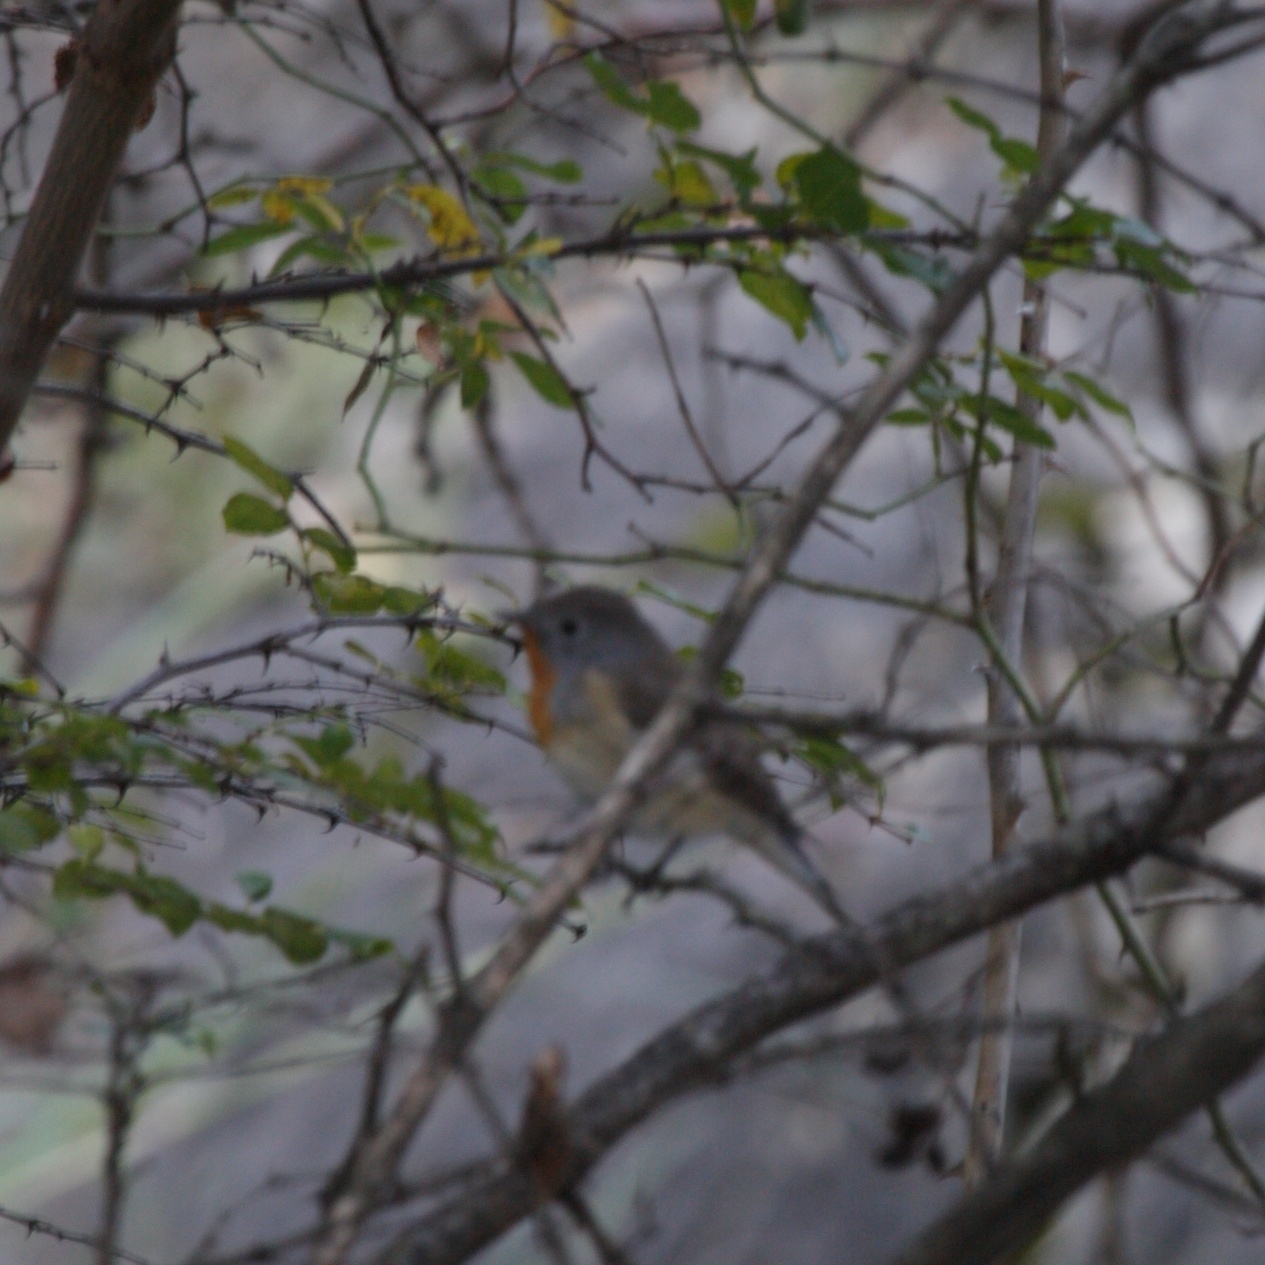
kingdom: Animalia
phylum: Chordata
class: Aves
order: Passeriformes
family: Muscicapidae
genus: Ficedula
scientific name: Ficedula parva
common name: Red-breasted flycatcher
